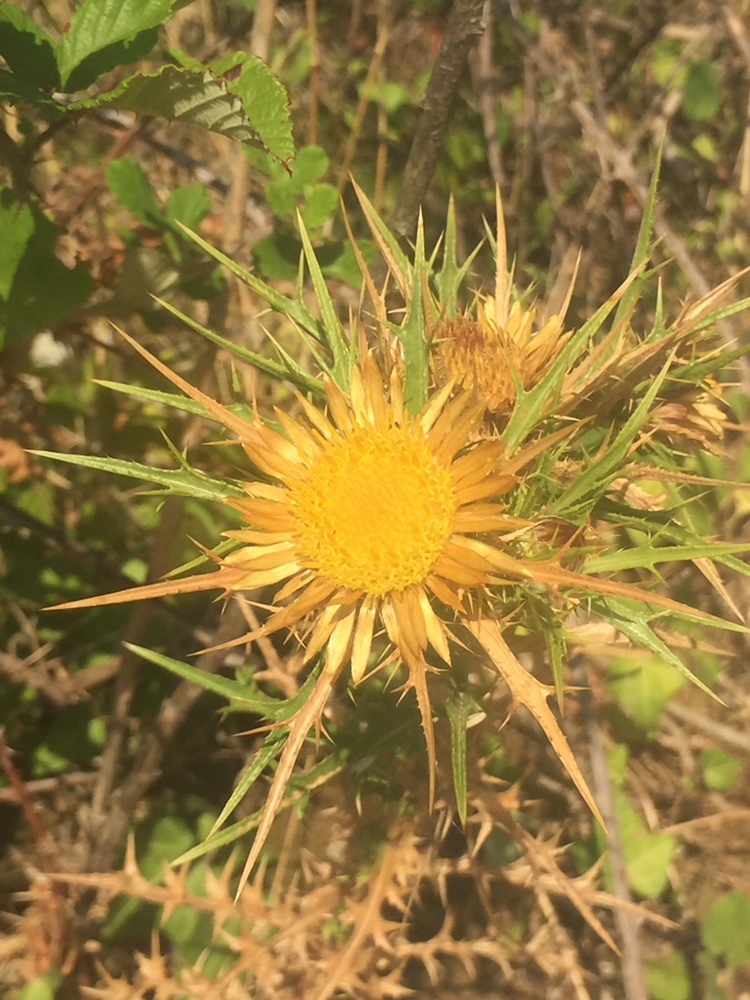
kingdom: Plantae
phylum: Tracheophyta
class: Magnoliopsida
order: Asterales
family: Asteraceae
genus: Carlina
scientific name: Carlina graeca
